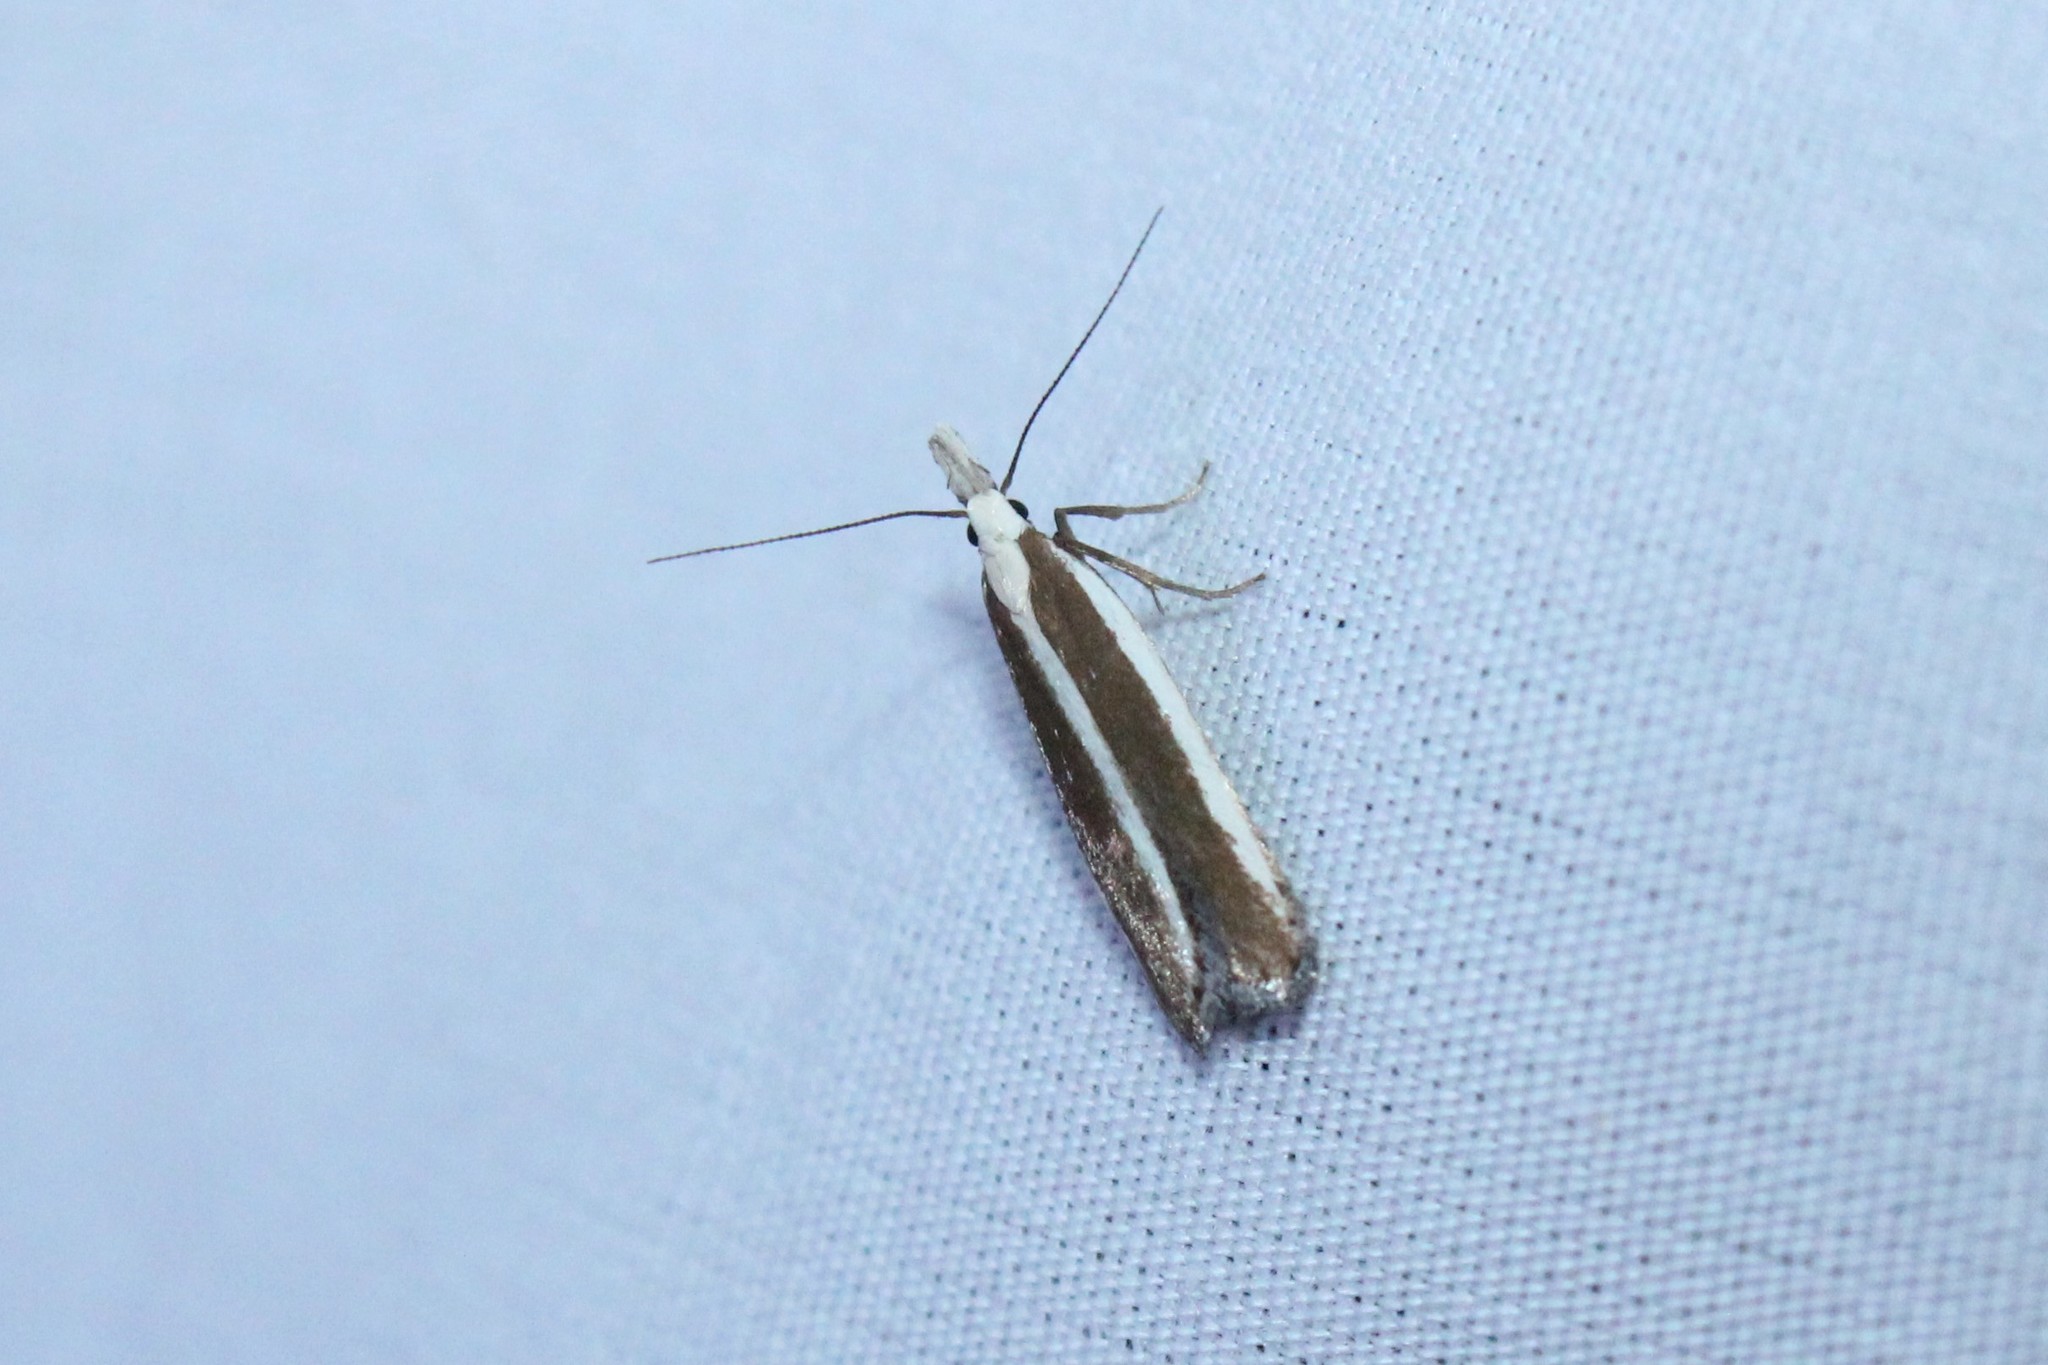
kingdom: Animalia
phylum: Arthropoda
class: Insecta
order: Lepidoptera
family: Gelechiidae
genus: Dichomeris
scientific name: Dichomeris marginella
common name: Juniper webworm
